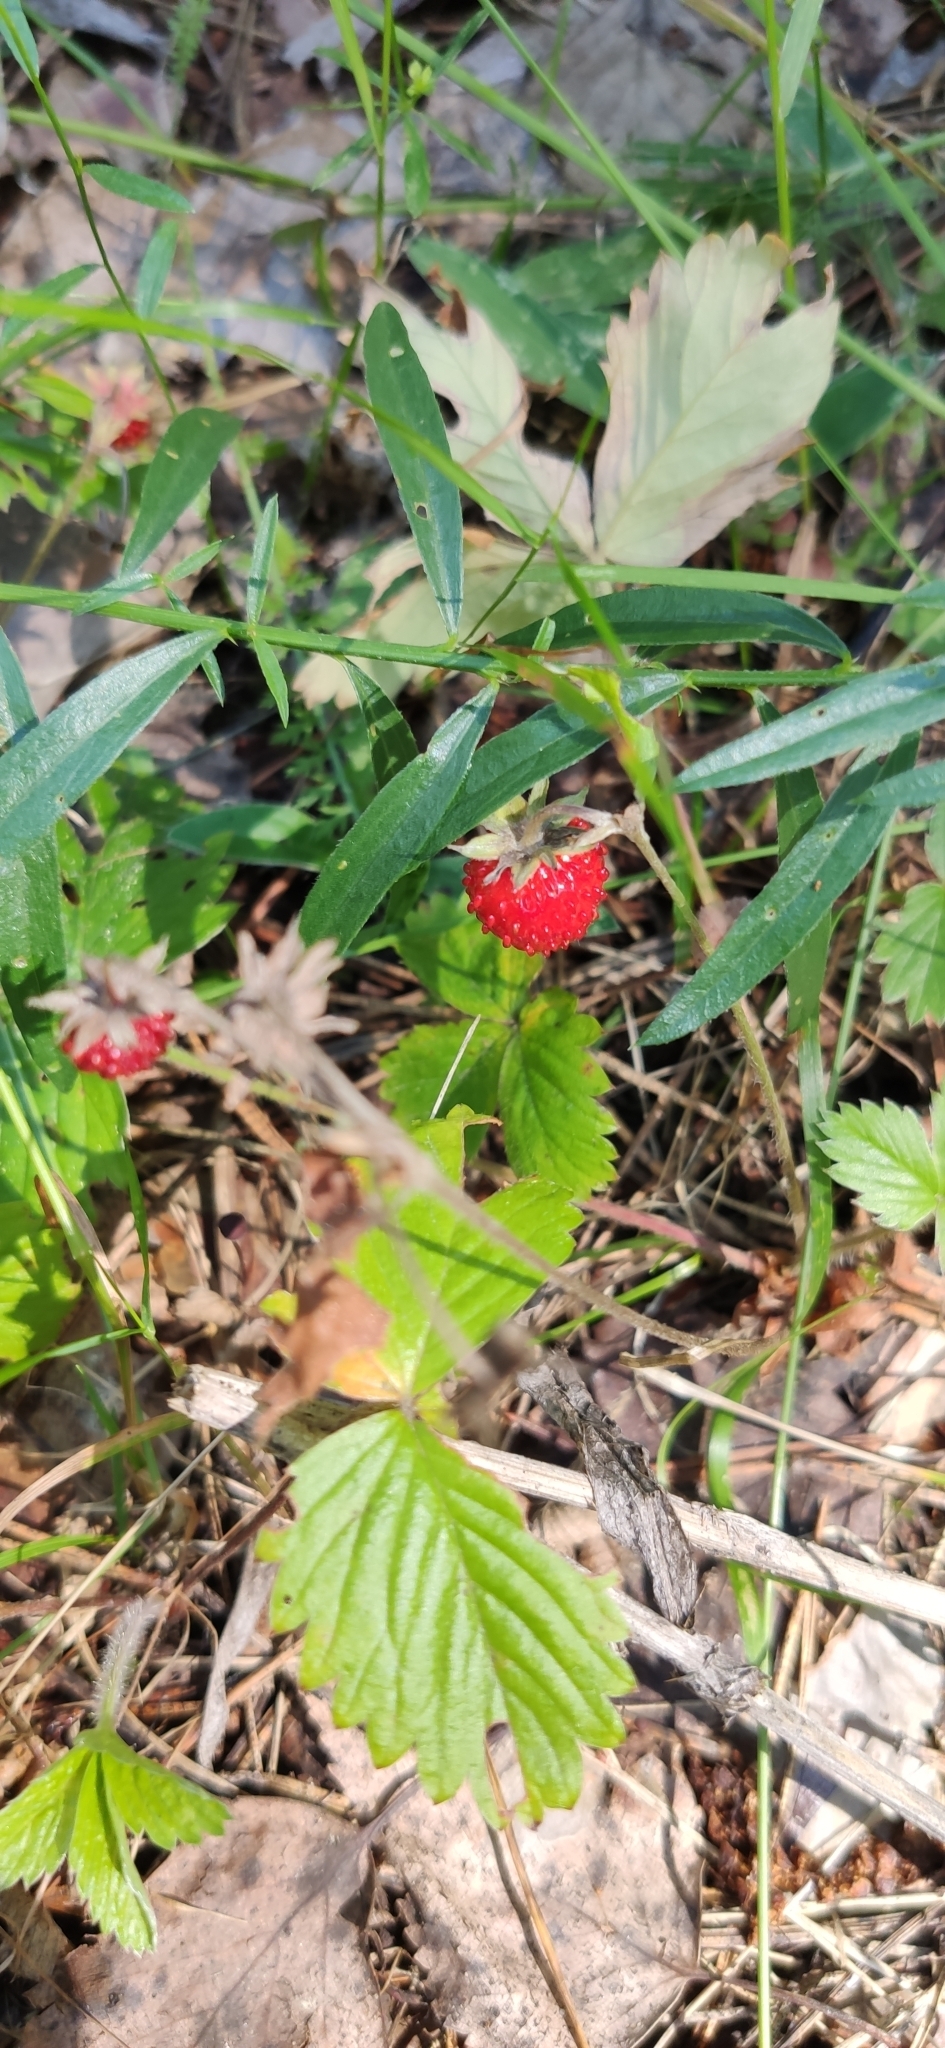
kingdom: Plantae
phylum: Tracheophyta
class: Magnoliopsida
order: Rosales
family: Rosaceae
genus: Fragaria
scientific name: Fragaria vesca
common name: Wild strawberry
